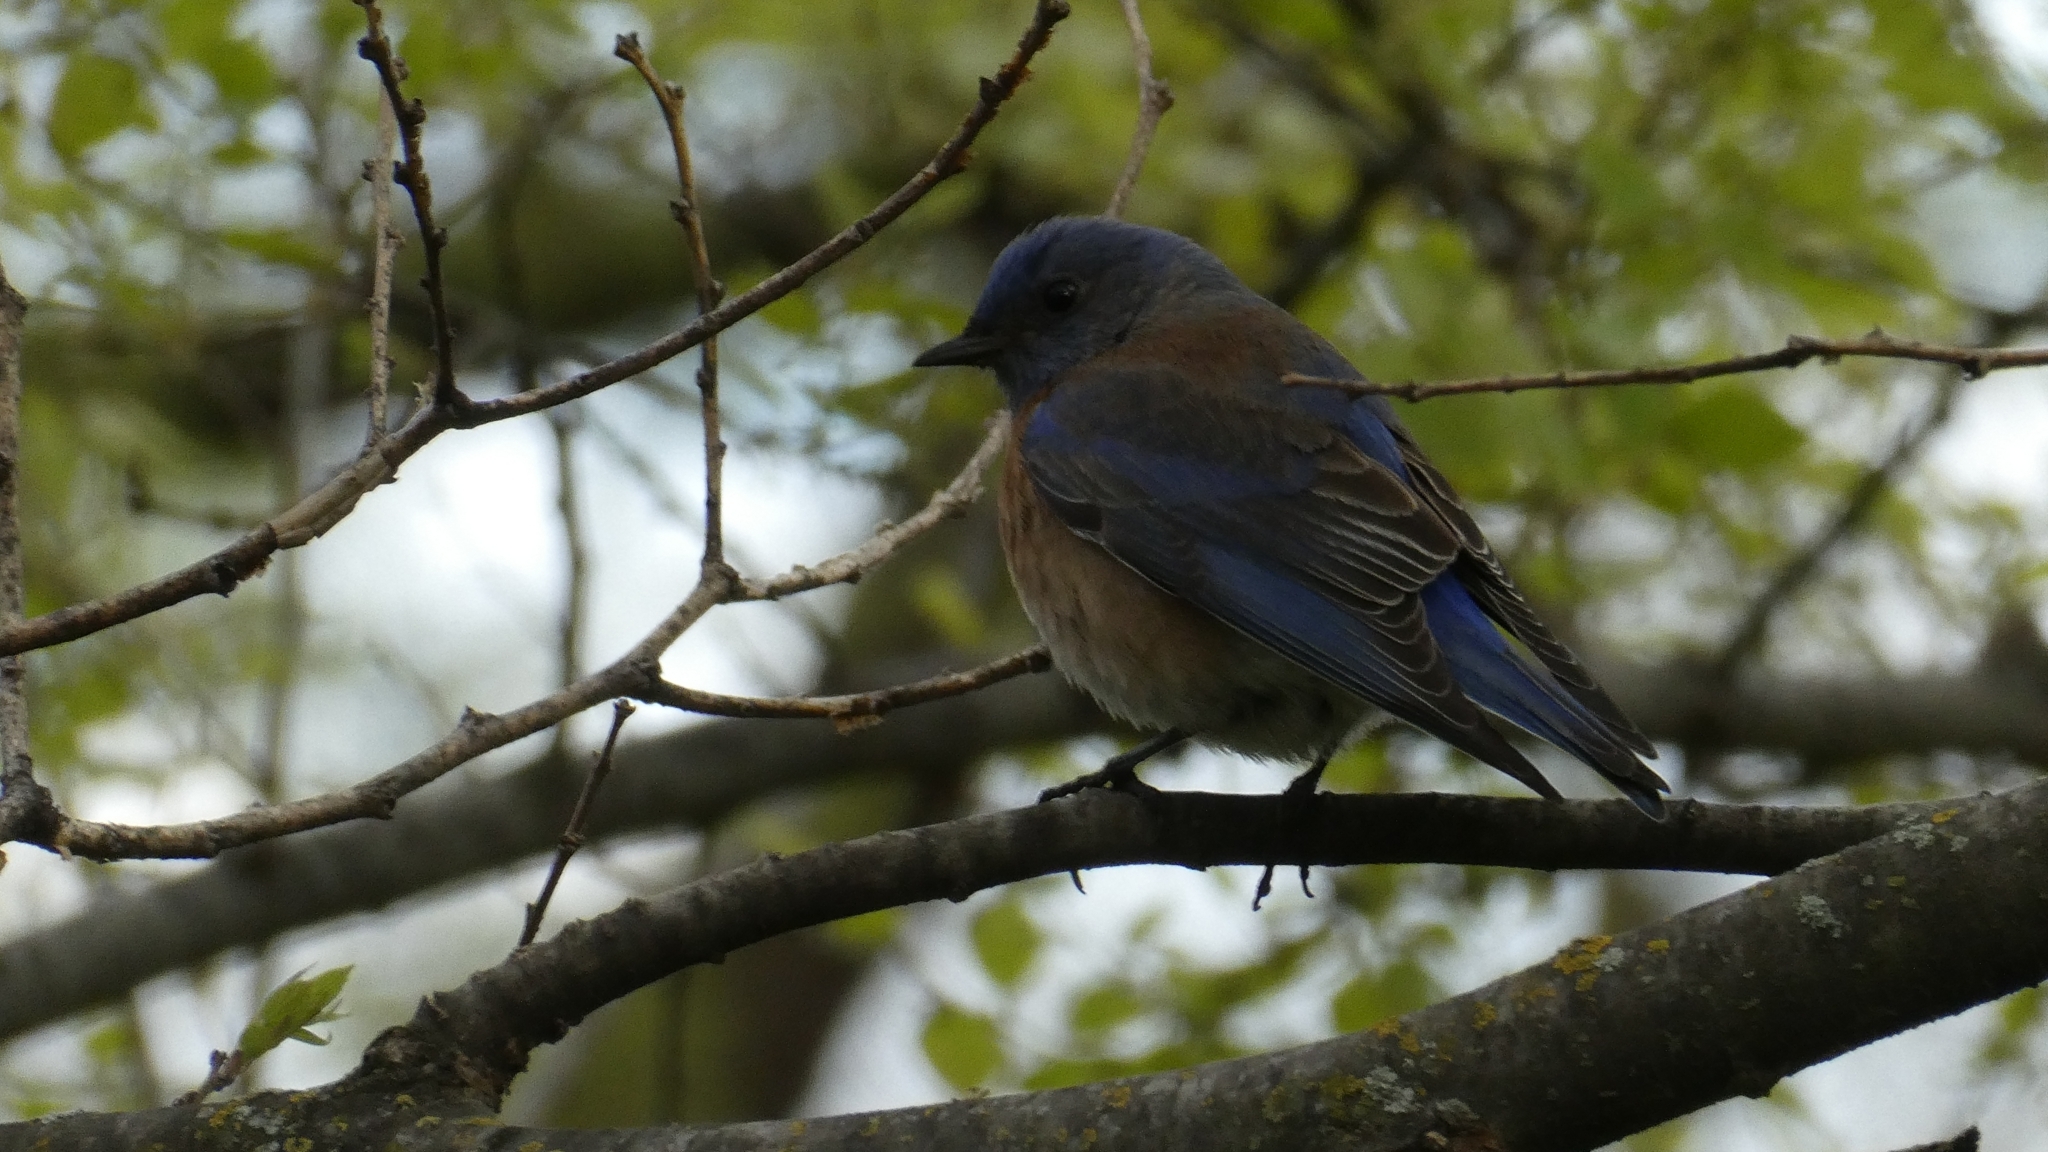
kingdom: Animalia
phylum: Chordata
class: Aves
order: Passeriformes
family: Turdidae
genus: Sialia
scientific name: Sialia mexicana
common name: Western bluebird
